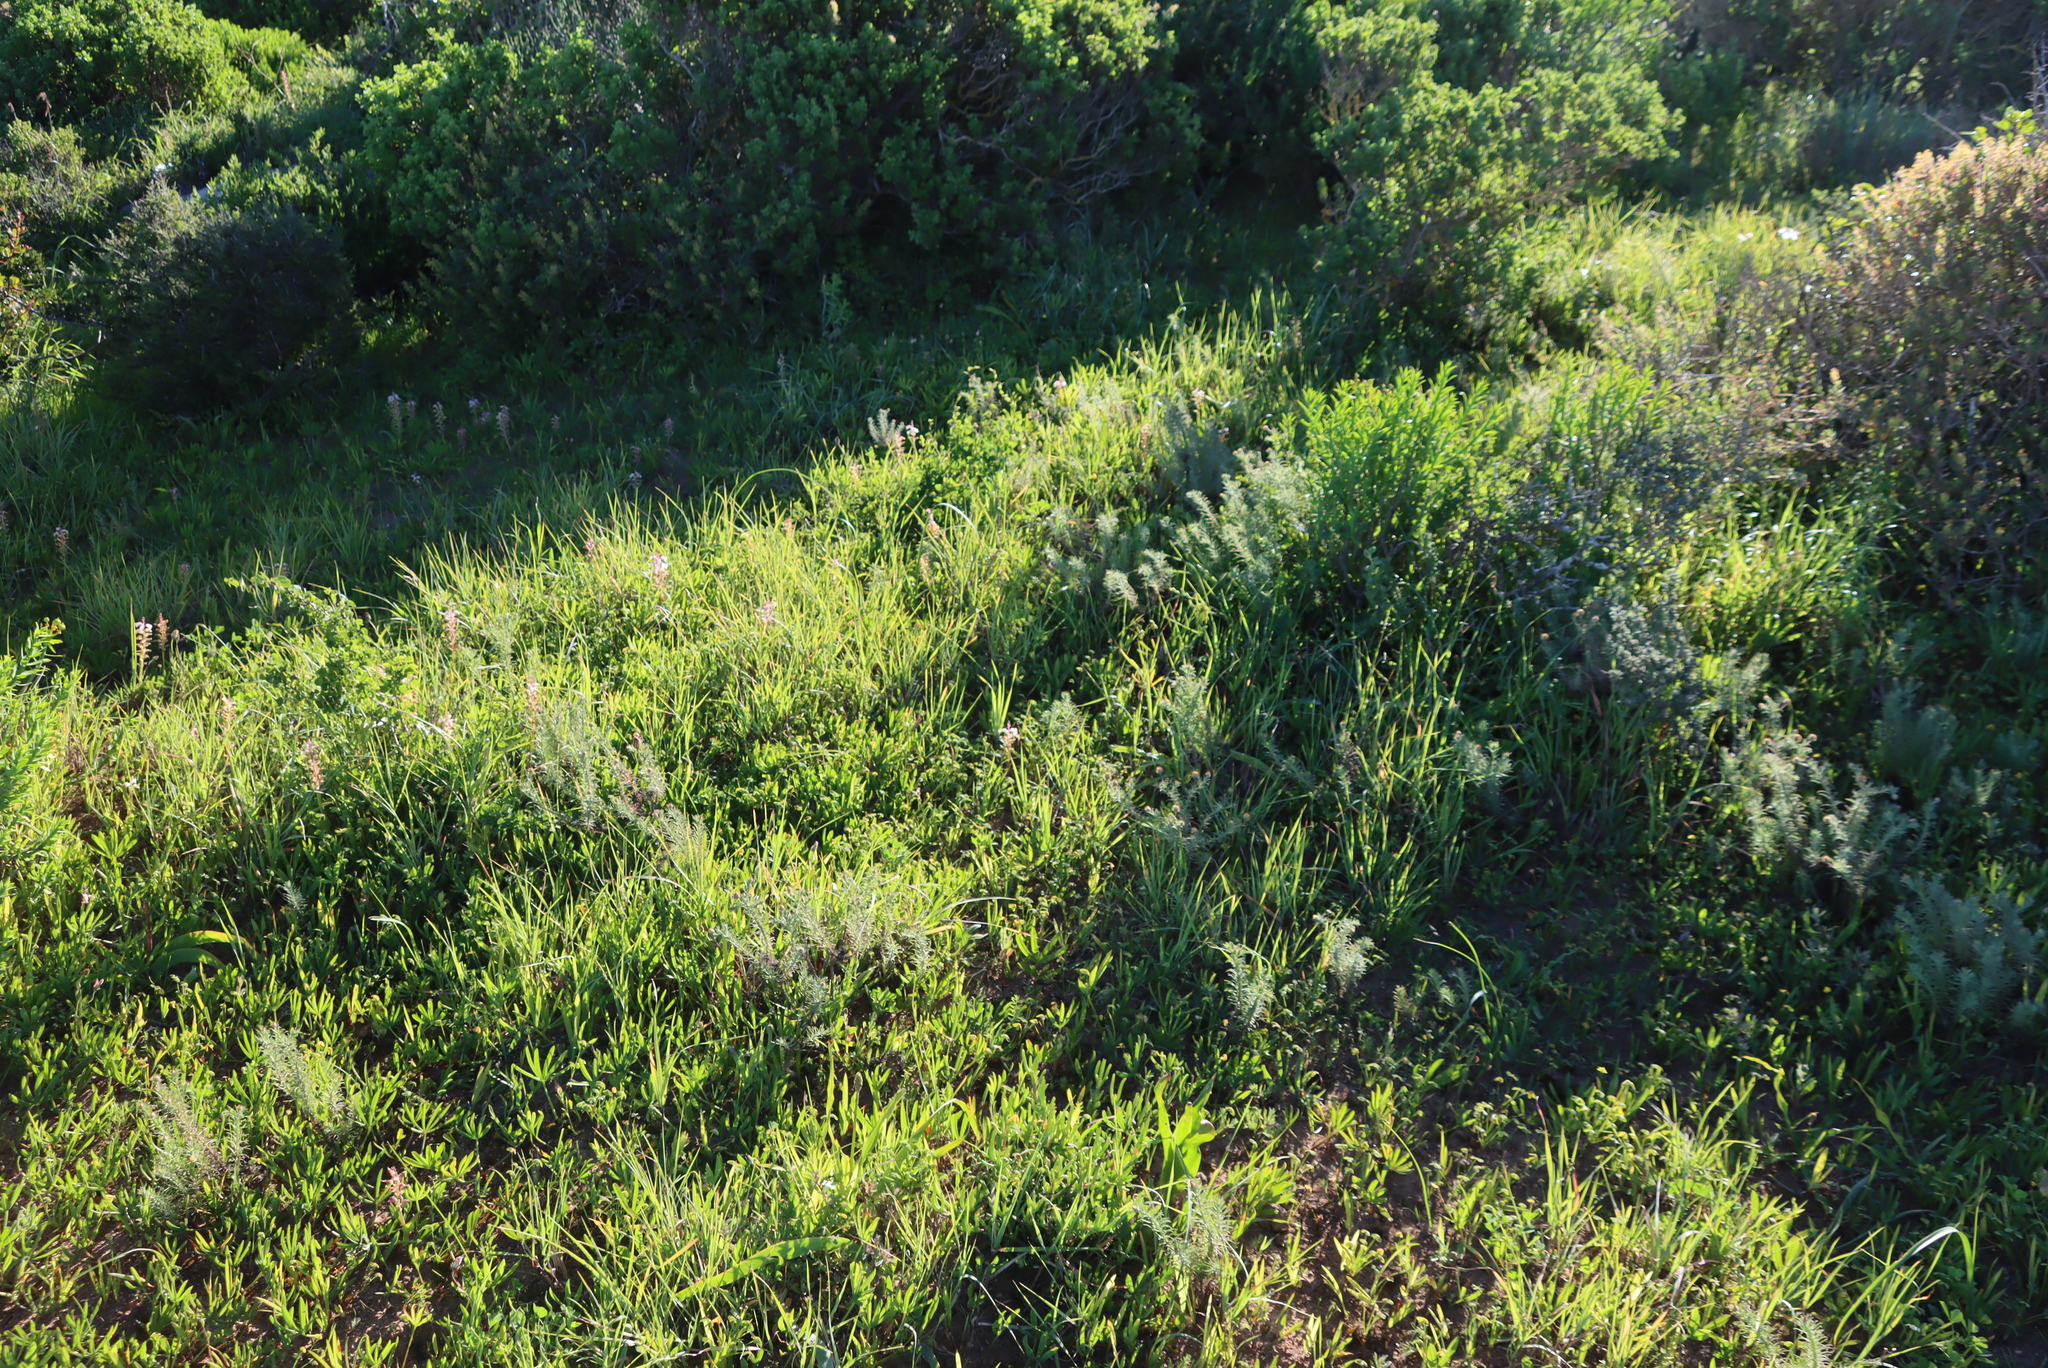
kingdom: Plantae
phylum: Tracheophyta
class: Magnoliopsida
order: Fabales
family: Fabaceae
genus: Indigofera
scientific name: Indigofera
